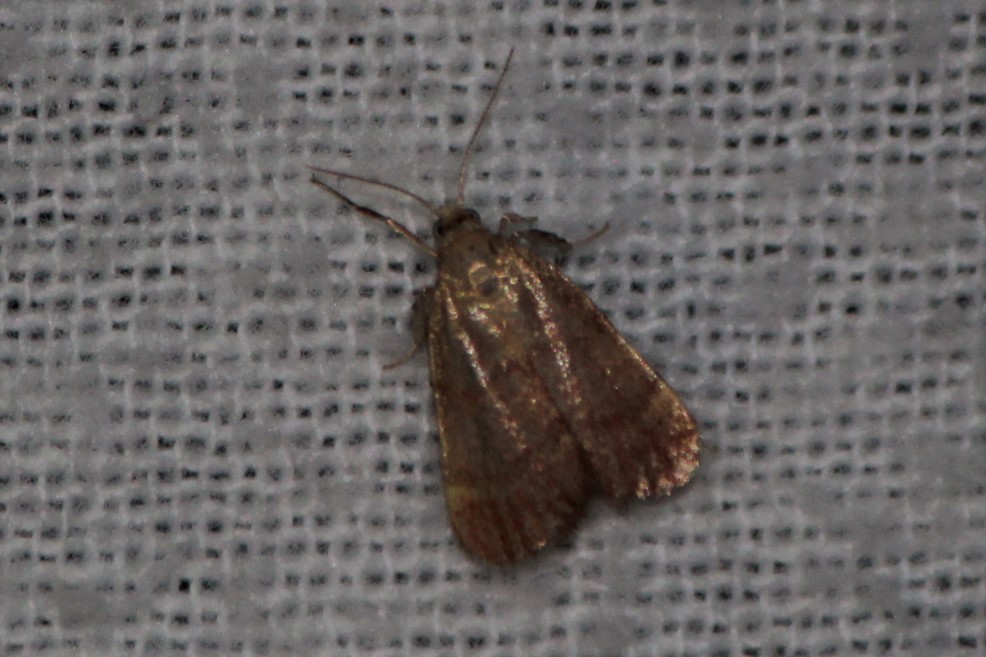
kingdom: Animalia
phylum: Arthropoda
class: Insecta
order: Lepidoptera
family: Pyralidae
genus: Condylolomia
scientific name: Condylolomia participialis
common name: Drab condylolomia moth
